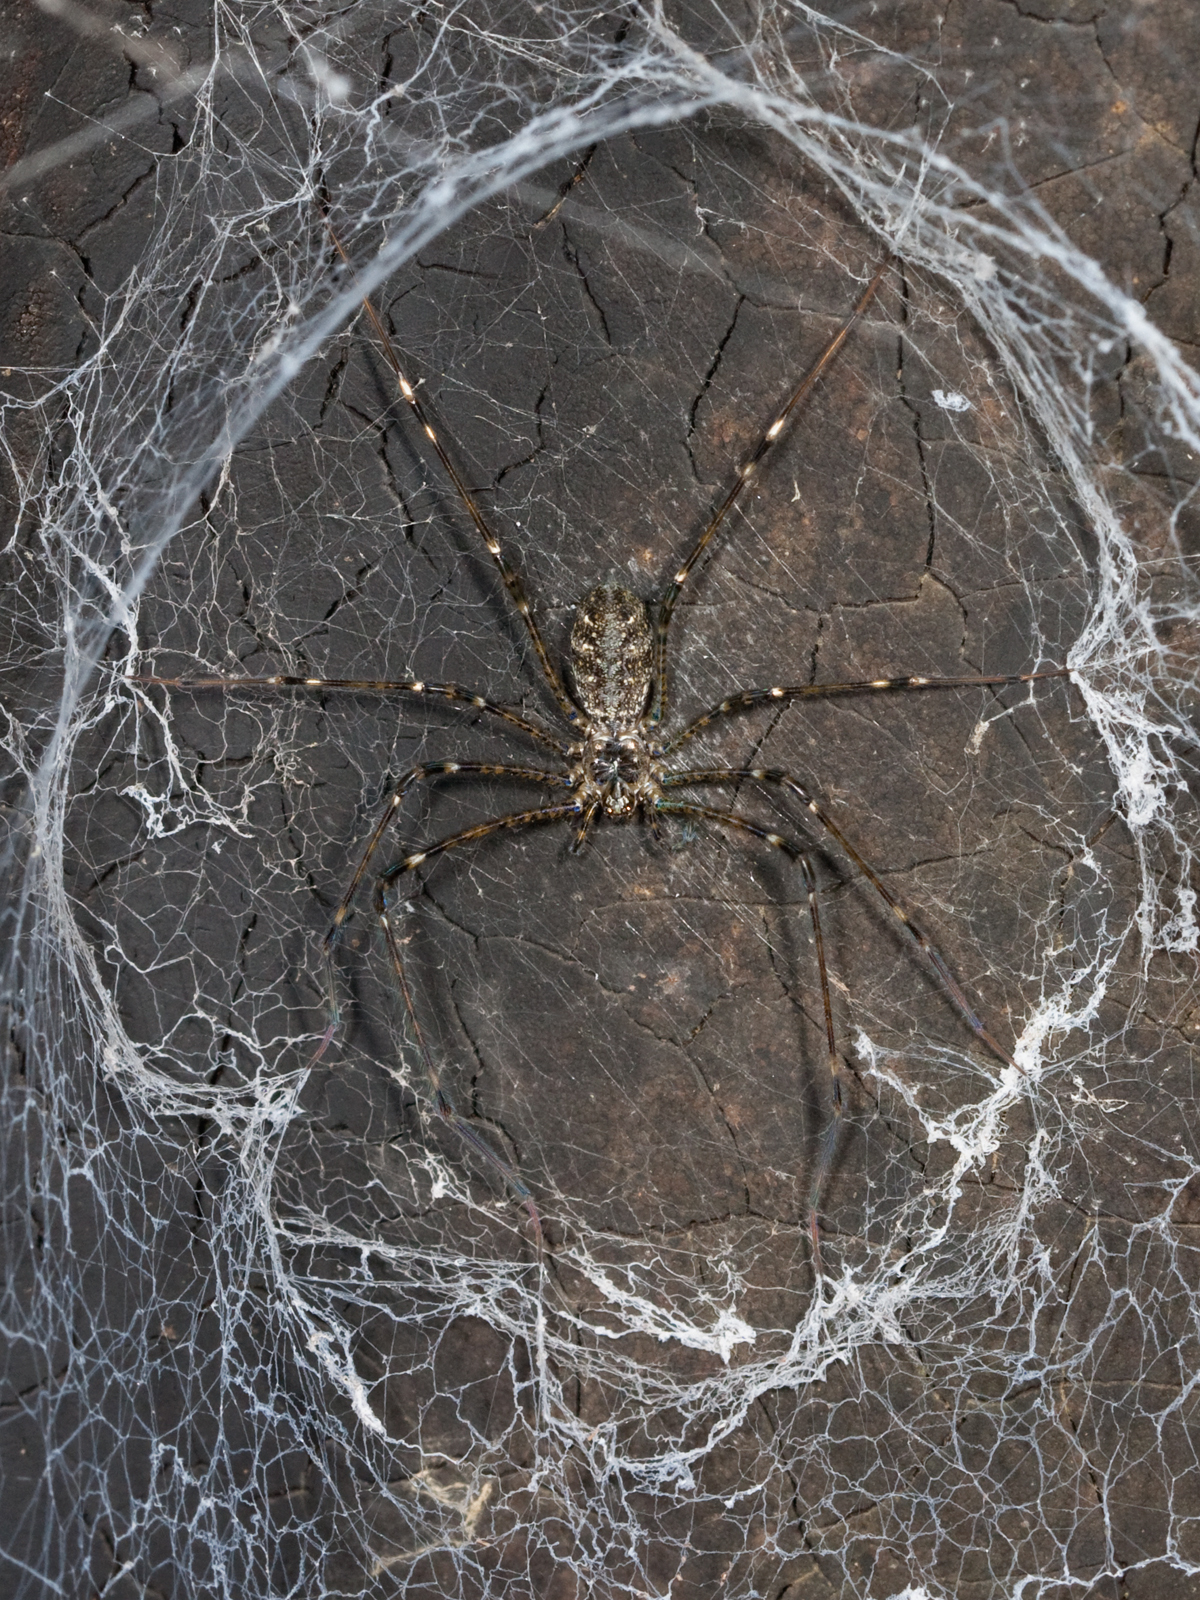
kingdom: Animalia
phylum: Arthropoda
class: Arachnida
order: Araneae
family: Hypochilidae
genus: Hypochilus
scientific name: Hypochilus pococki
